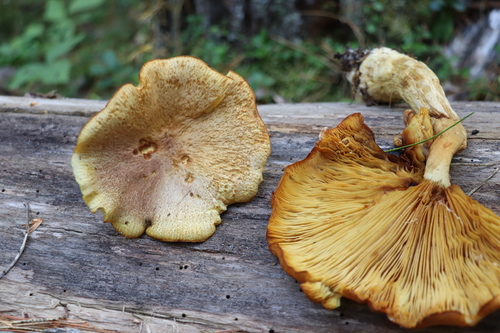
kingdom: Fungi
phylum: Basidiomycota
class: Agaricomycetes
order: Agaricales
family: Tricholomataceae
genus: Tricholomopsis
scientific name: Tricholomopsis rutilans
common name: Plums and custard
